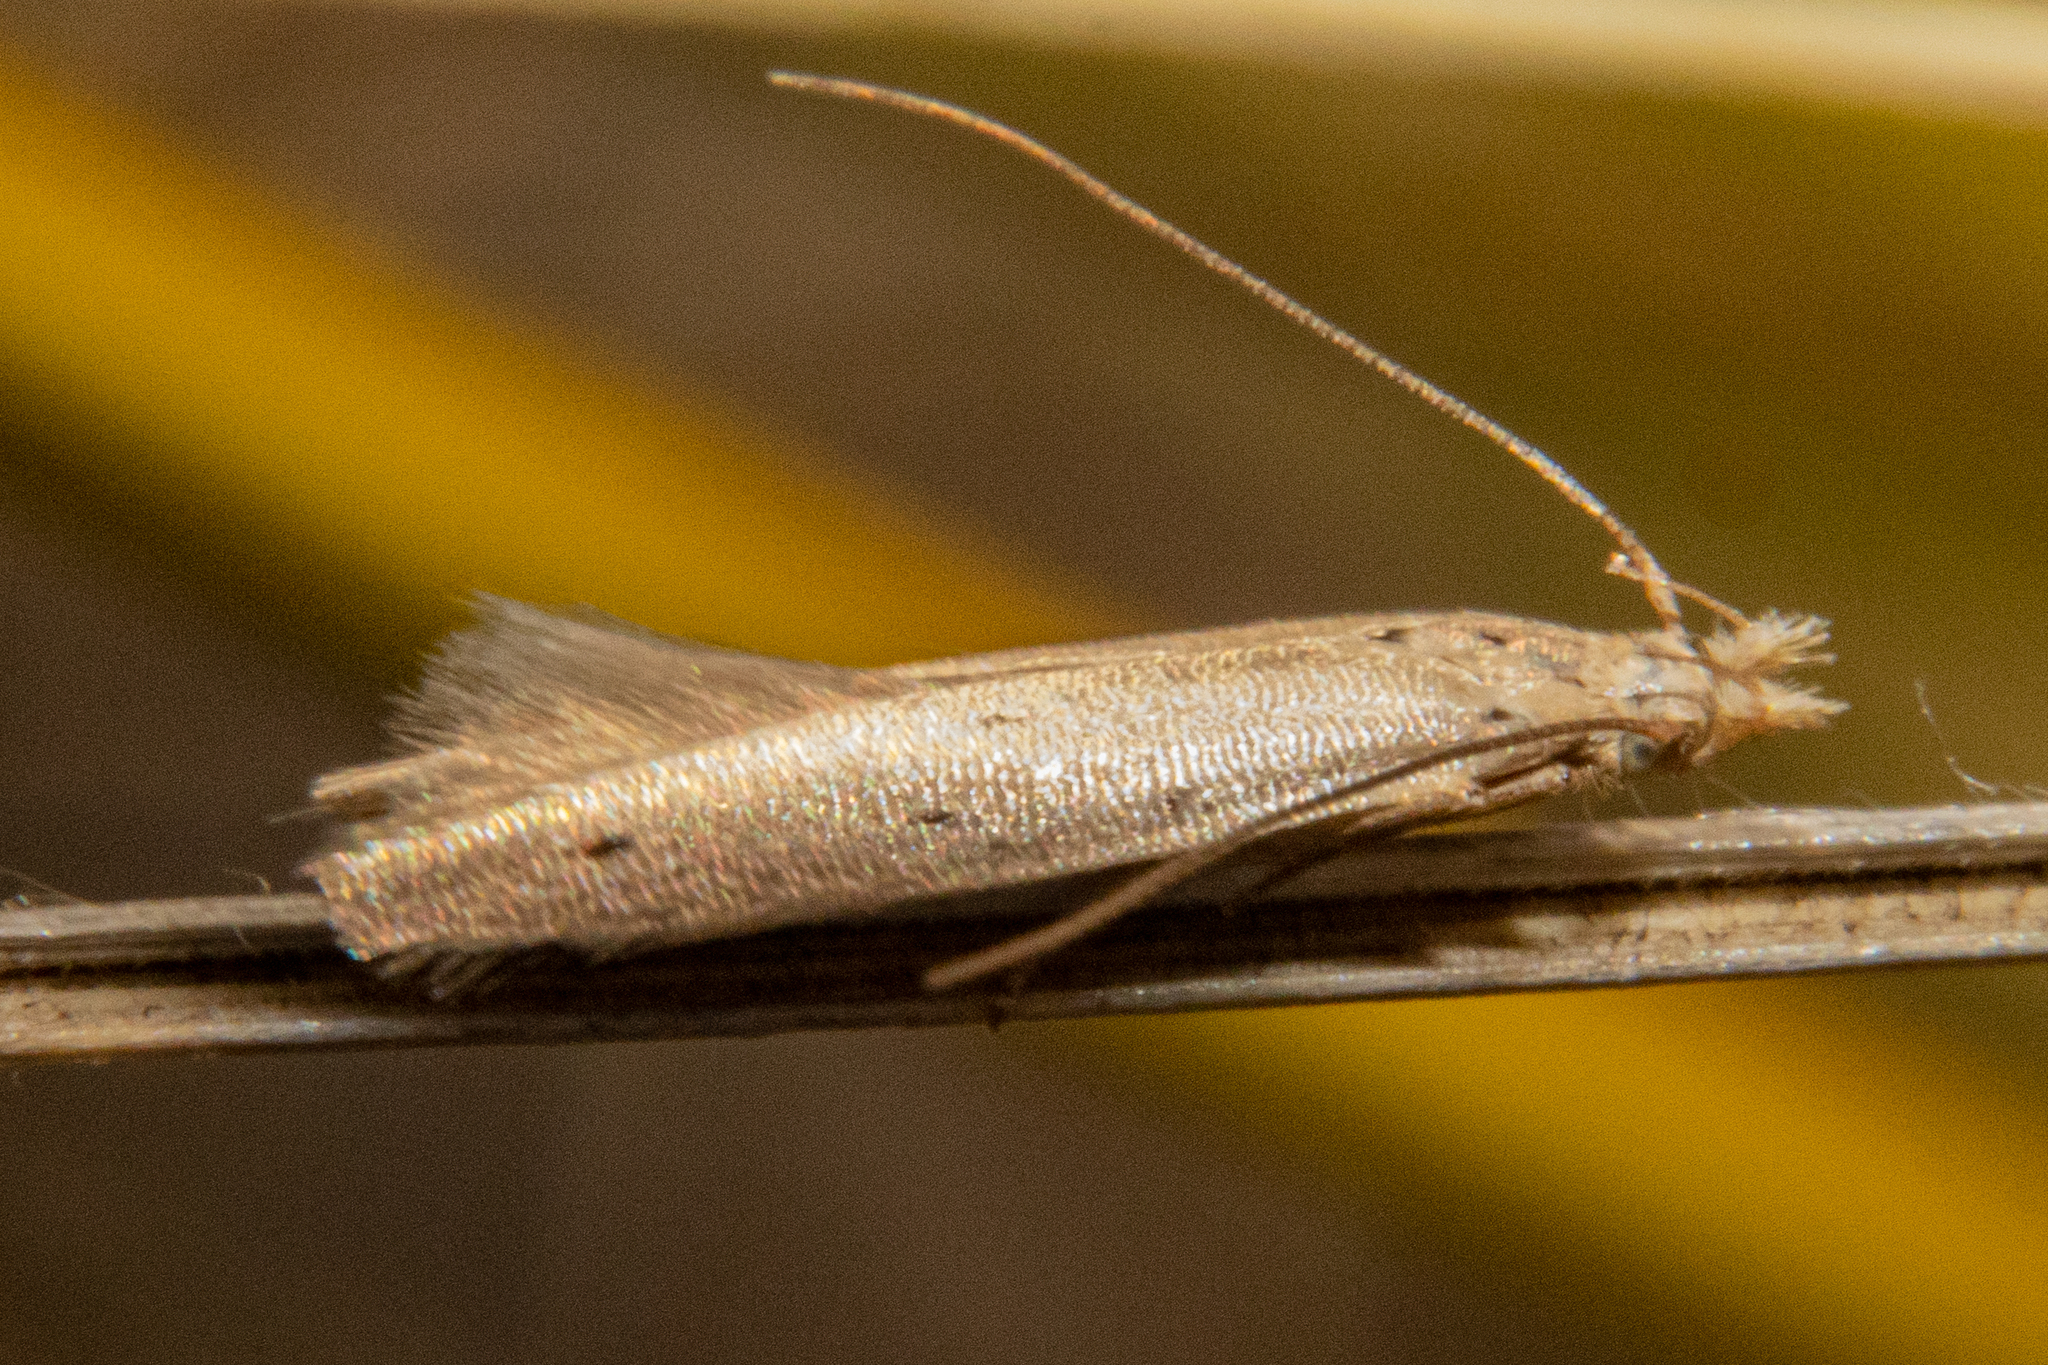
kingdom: Animalia
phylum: Arthropoda
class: Insecta
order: Lepidoptera
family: Gelechiidae
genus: Epiphthora
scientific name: Epiphthora calamogonus
